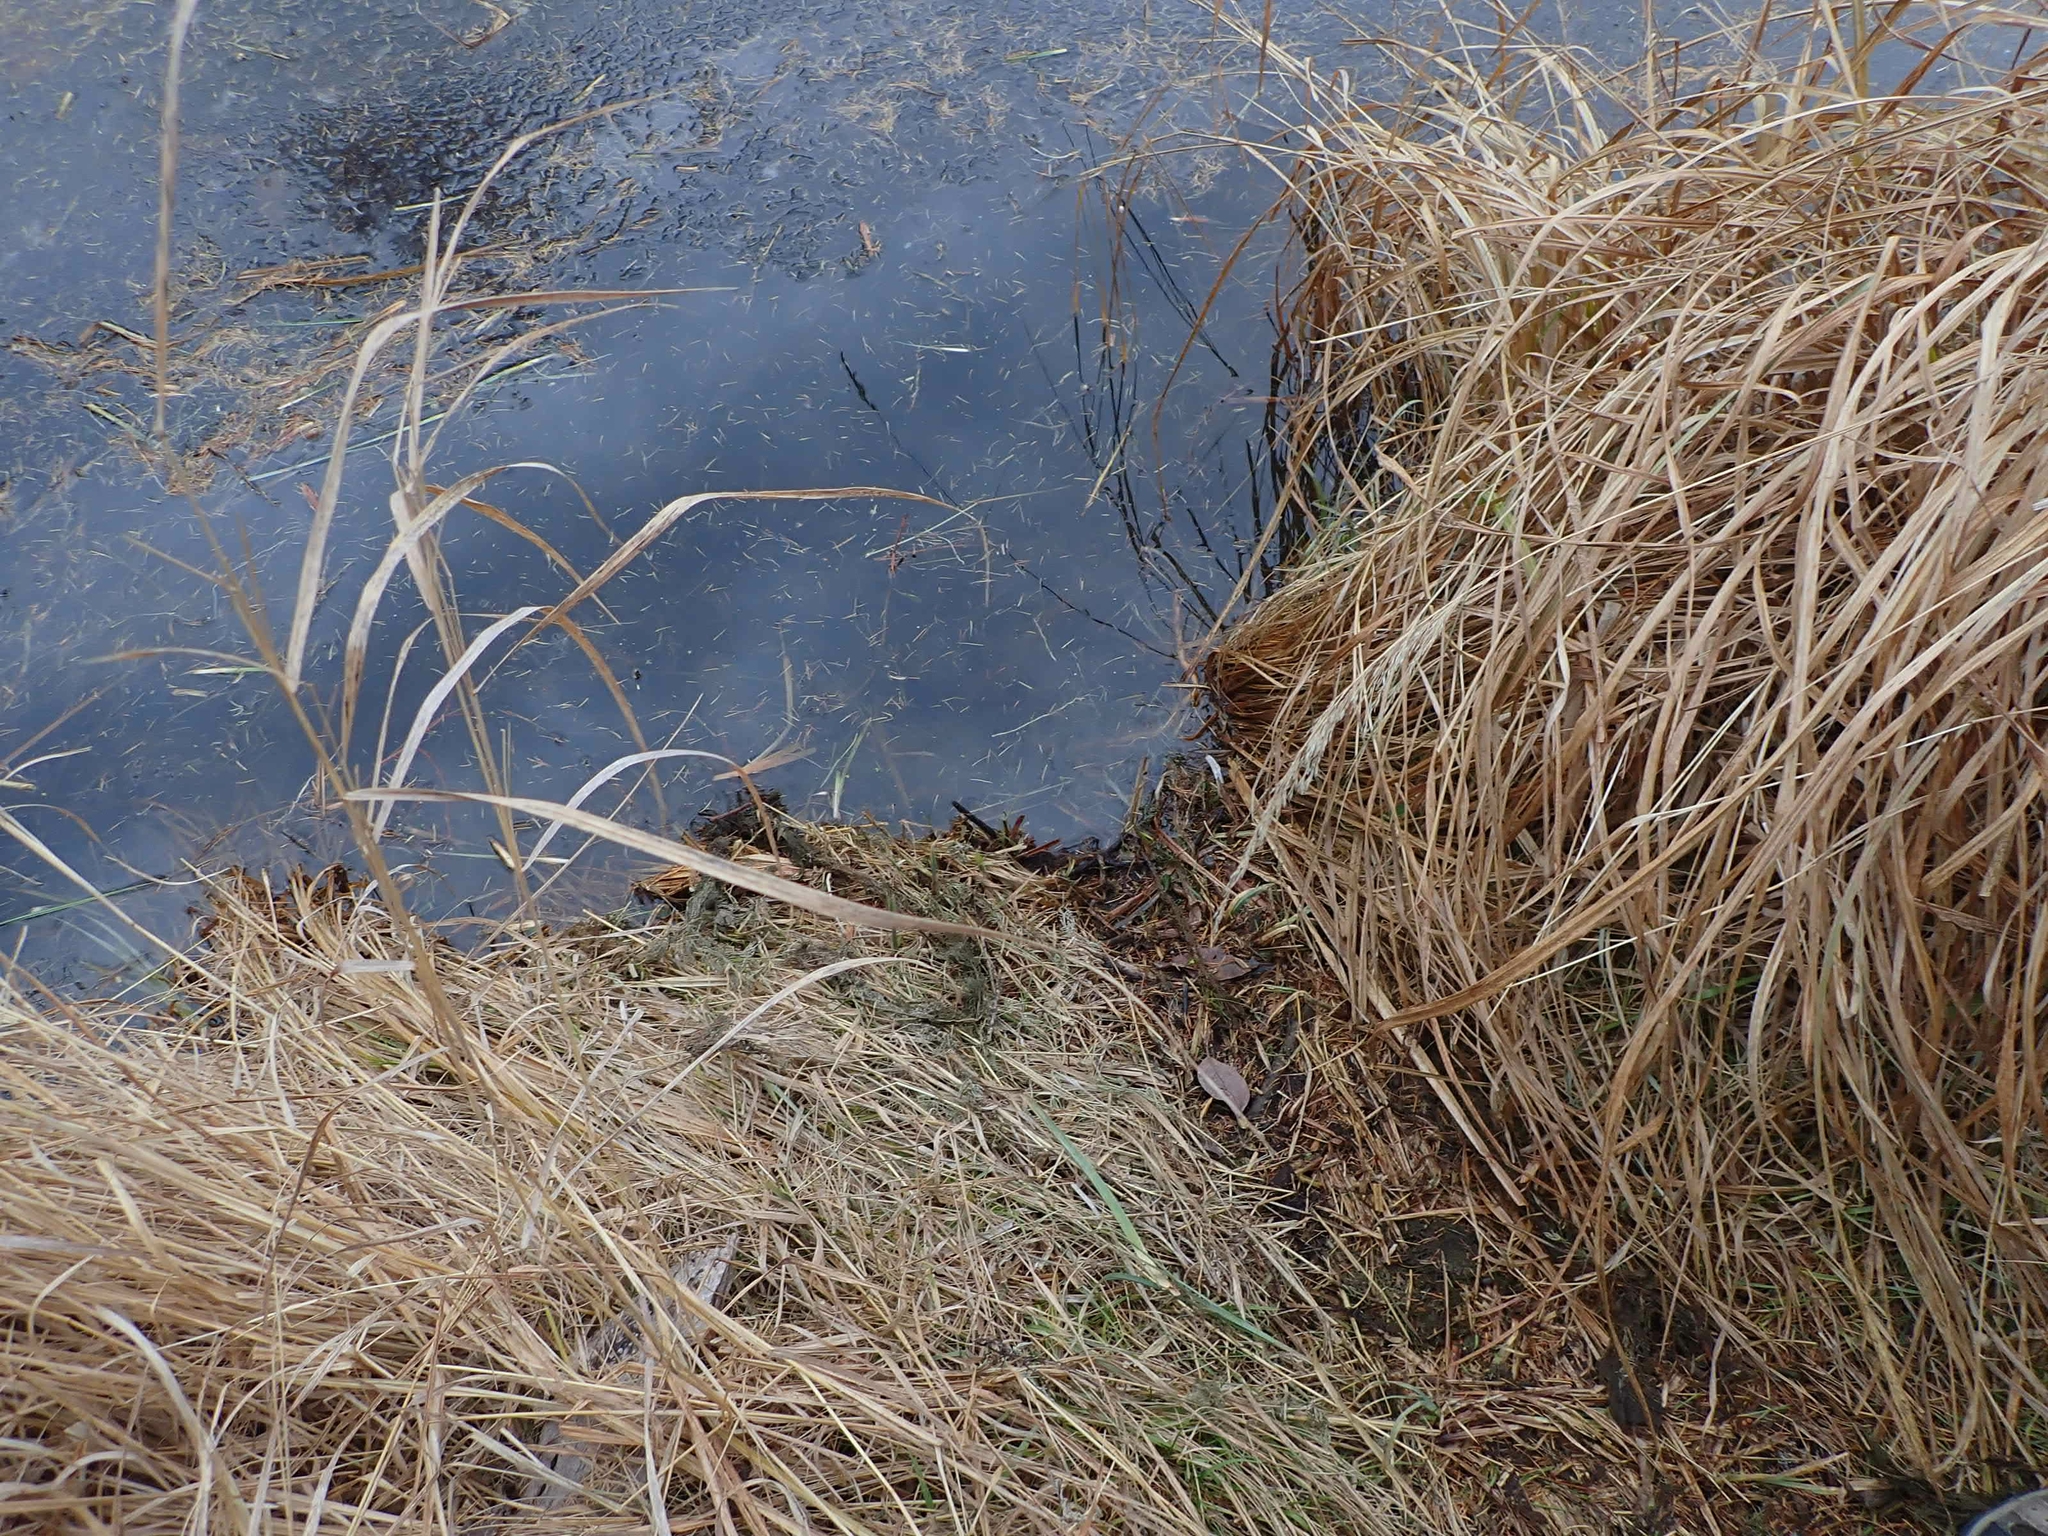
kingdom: Animalia
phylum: Chordata
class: Mammalia
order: Rodentia
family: Castoridae
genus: Castor
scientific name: Castor canadensis
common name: American beaver
